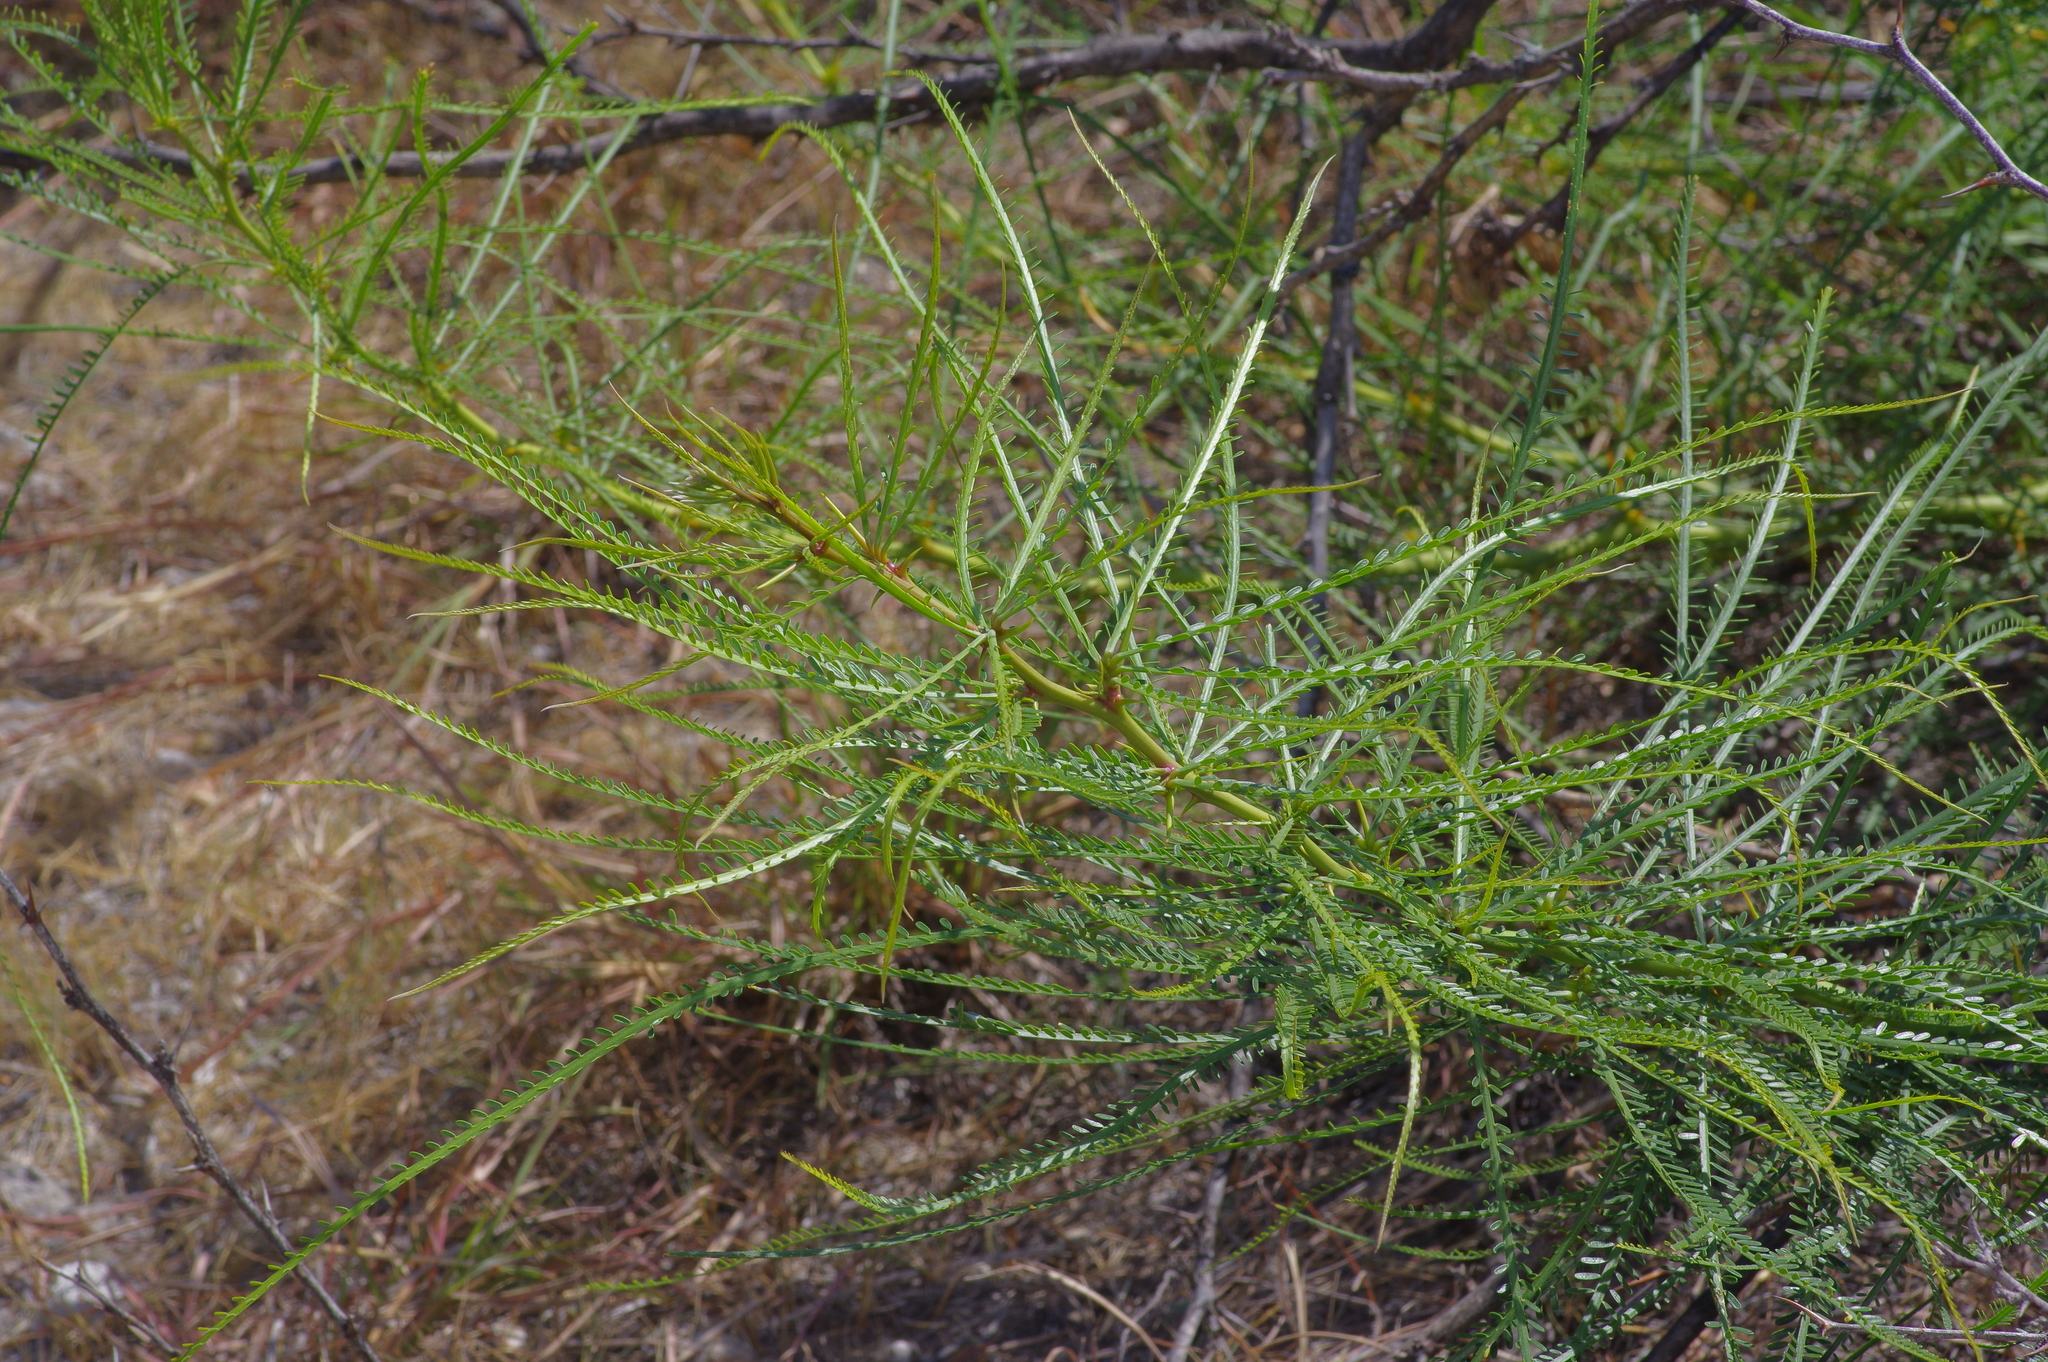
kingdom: Plantae
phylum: Tracheophyta
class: Magnoliopsida
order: Fabales
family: Fabaceae
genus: Parkinsonia
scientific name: Parkinsonia aculeata
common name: Jerusalem thorn
